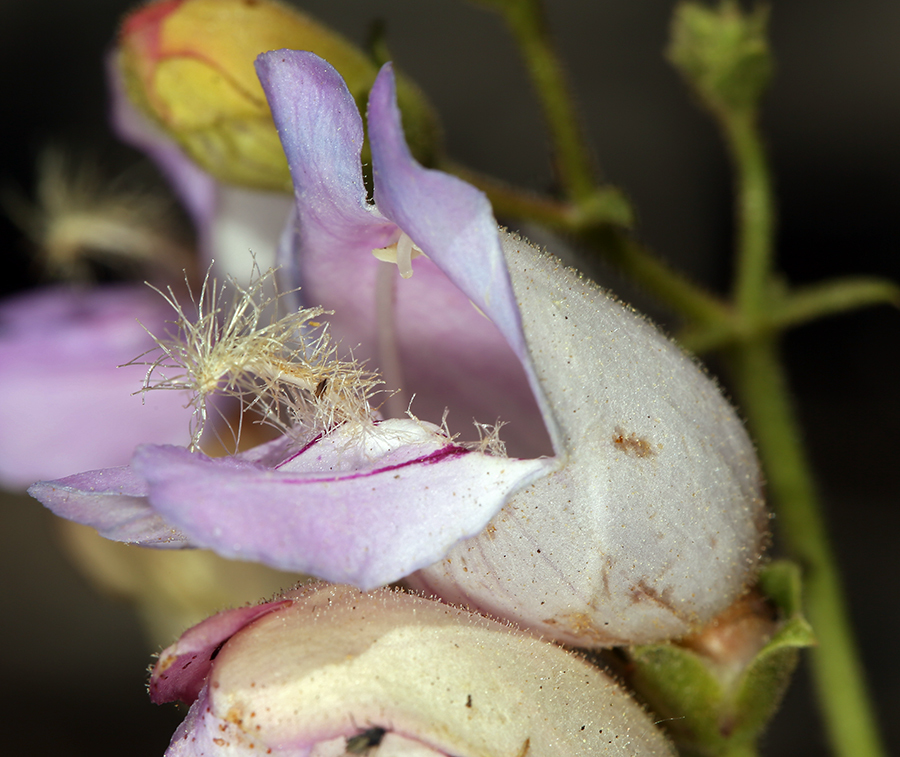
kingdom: Plantae
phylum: Tracheophyta
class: Magnoliopsida
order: Lamiales
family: Plantaginaceae
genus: Penstemon
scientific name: Penstemon grinnellii
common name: Grinnell's beardtongue
